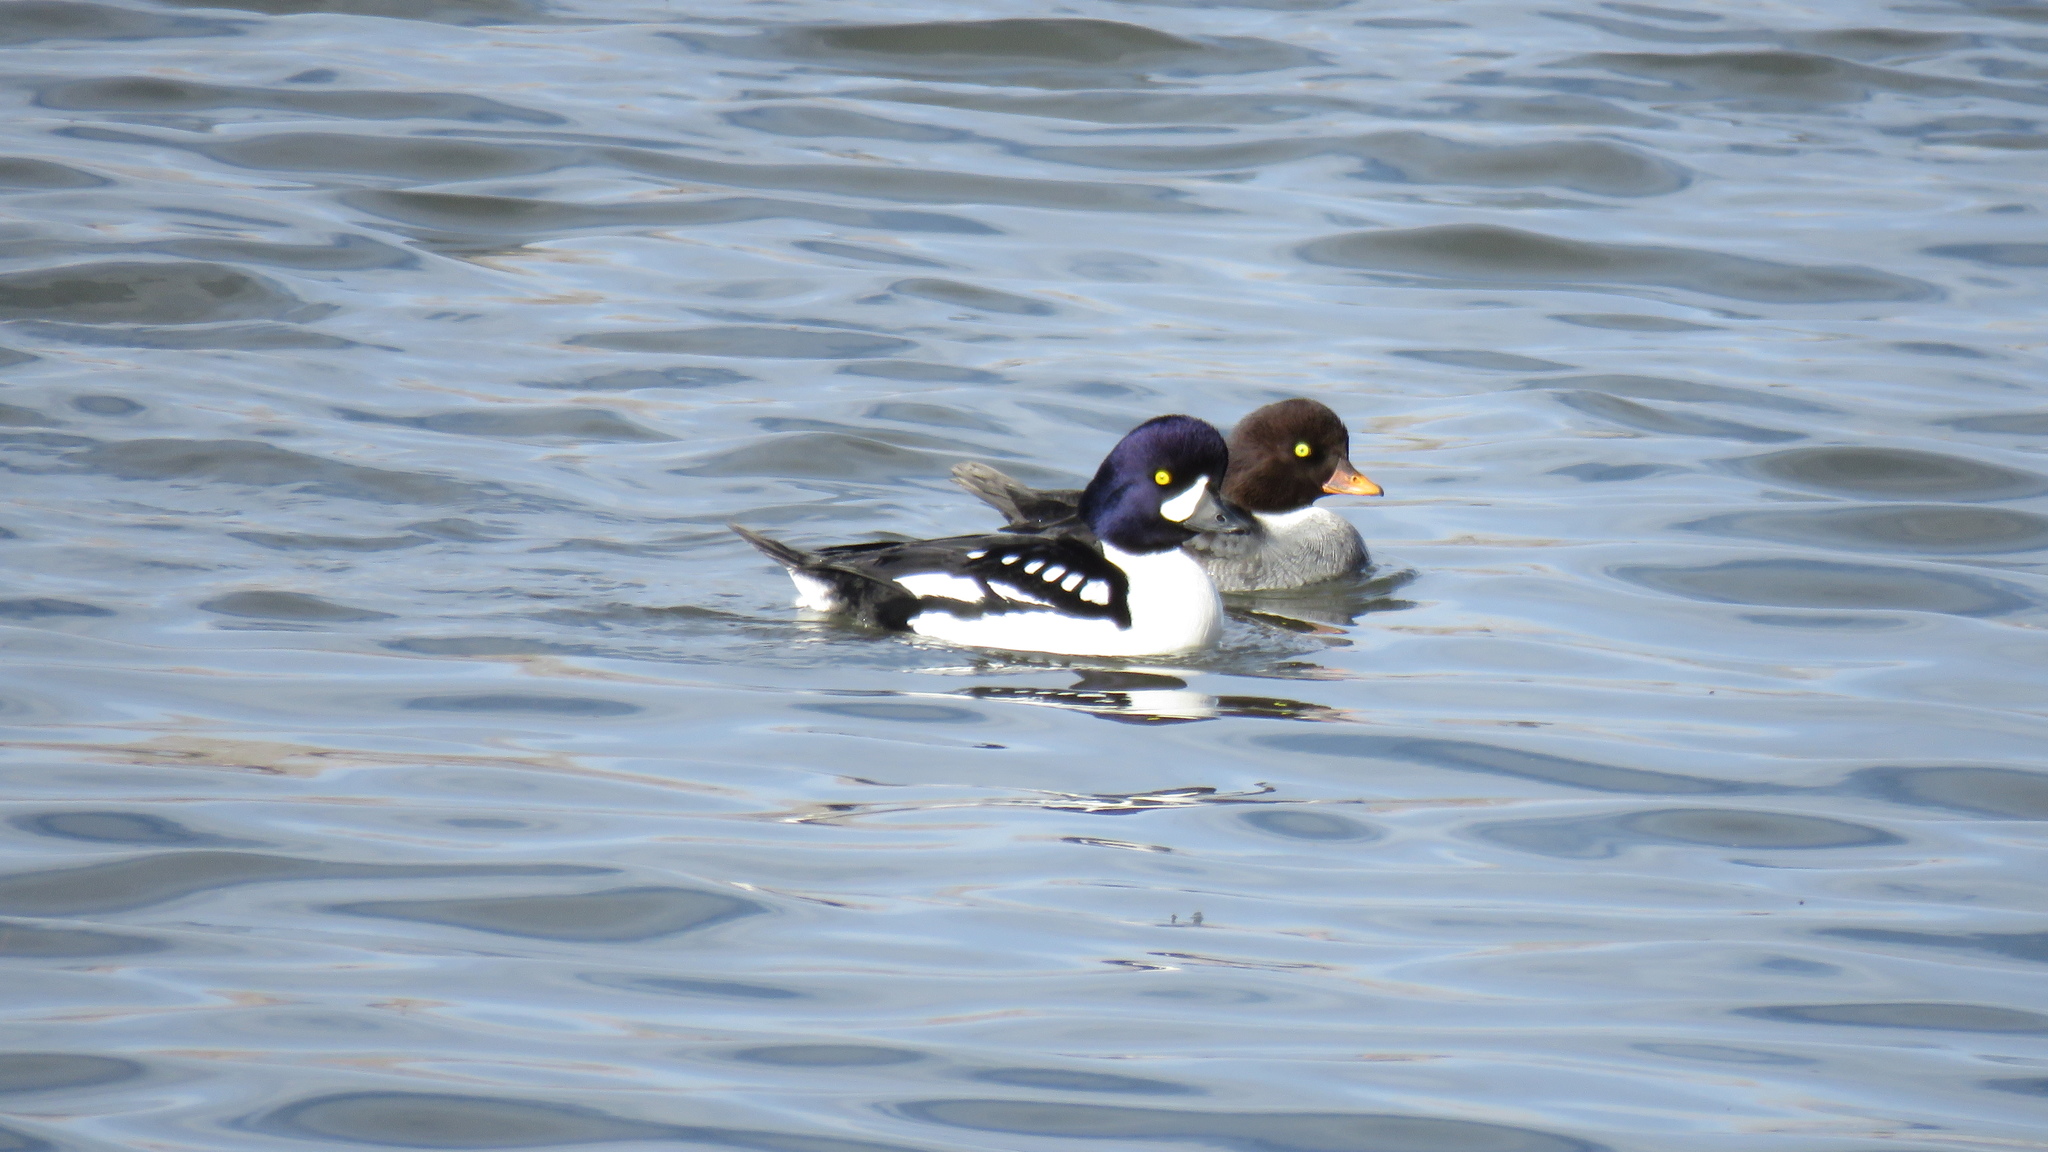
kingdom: Animalia
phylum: Chordata
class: Aves
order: Anseriformes
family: Anatidae
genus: Bucephala
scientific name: Bucephala islandica
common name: Barrow's goldeneye
